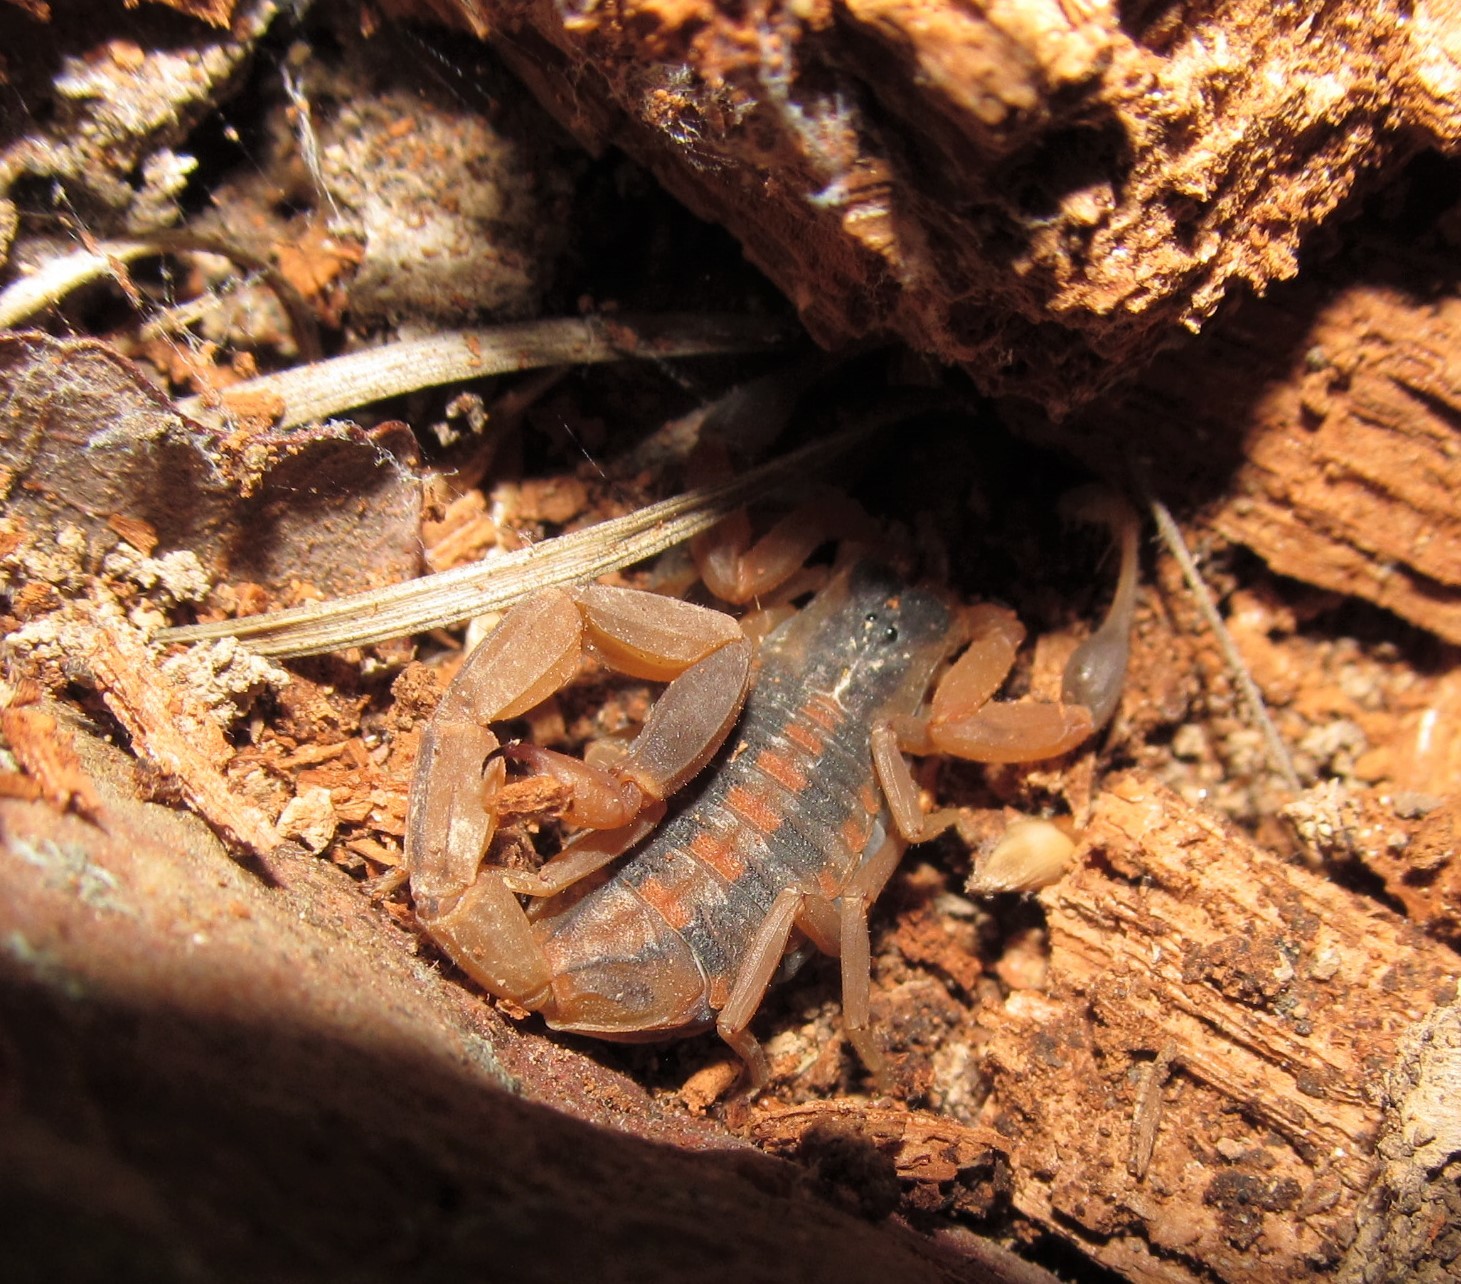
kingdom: Animalia
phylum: Arthropoda
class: Arachnida
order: Scorpiones
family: Buthidae
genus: Centruroides
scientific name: Centruroides vittatus
